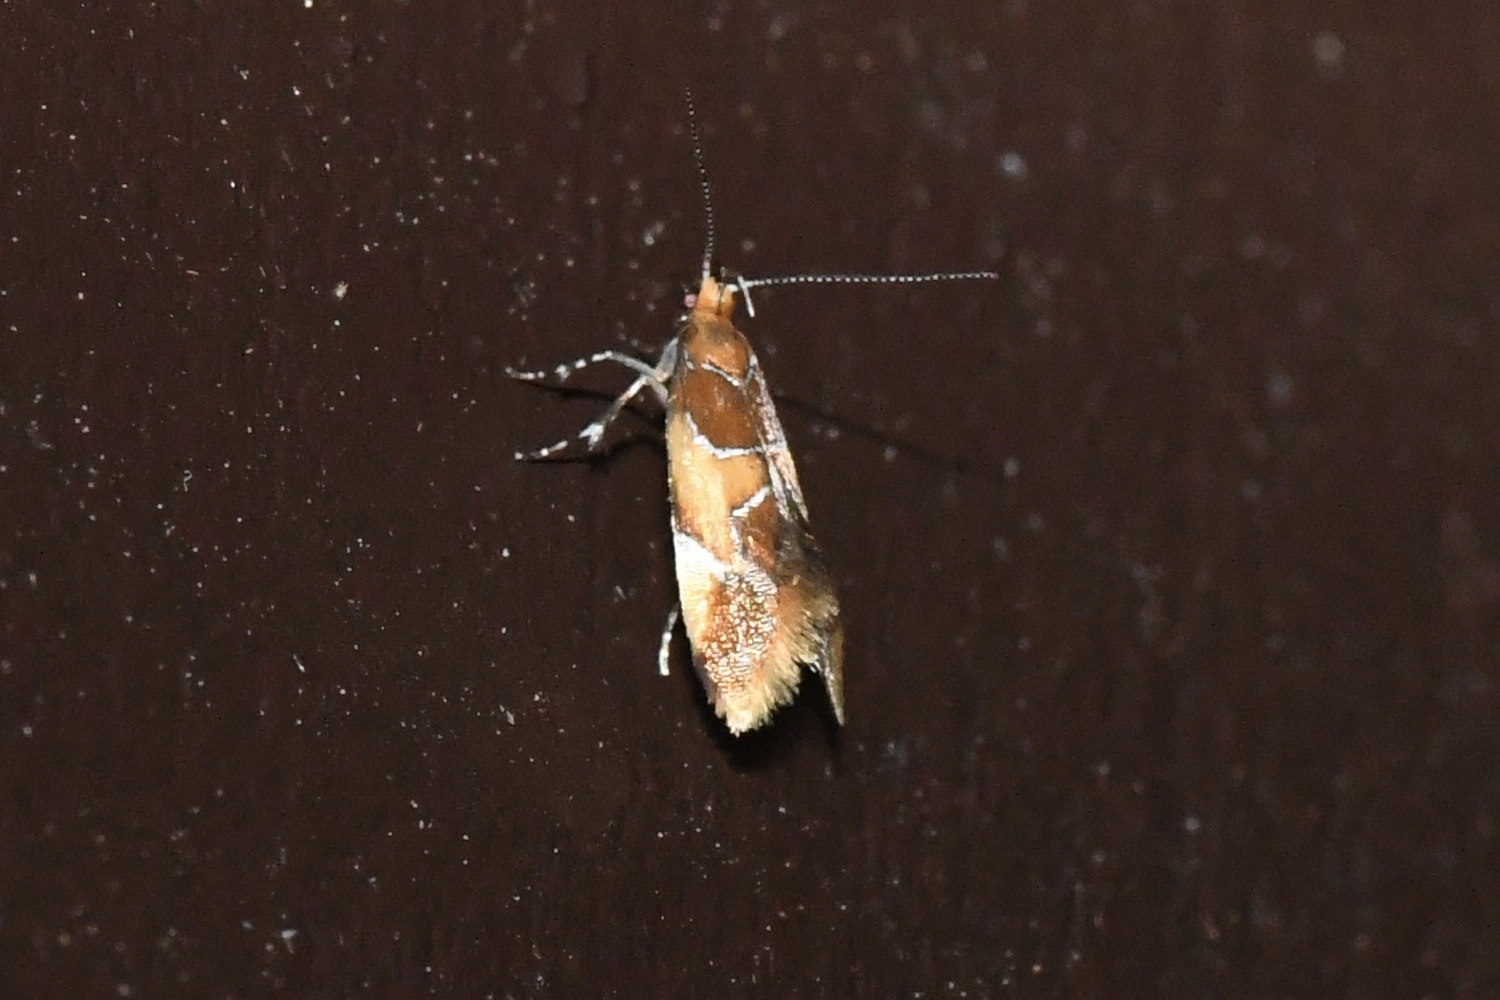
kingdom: Animalia
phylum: Arthropoda
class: Insecta
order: Lepidoptera
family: Oecophoridae
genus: Callima
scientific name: Callima argenticinctella
